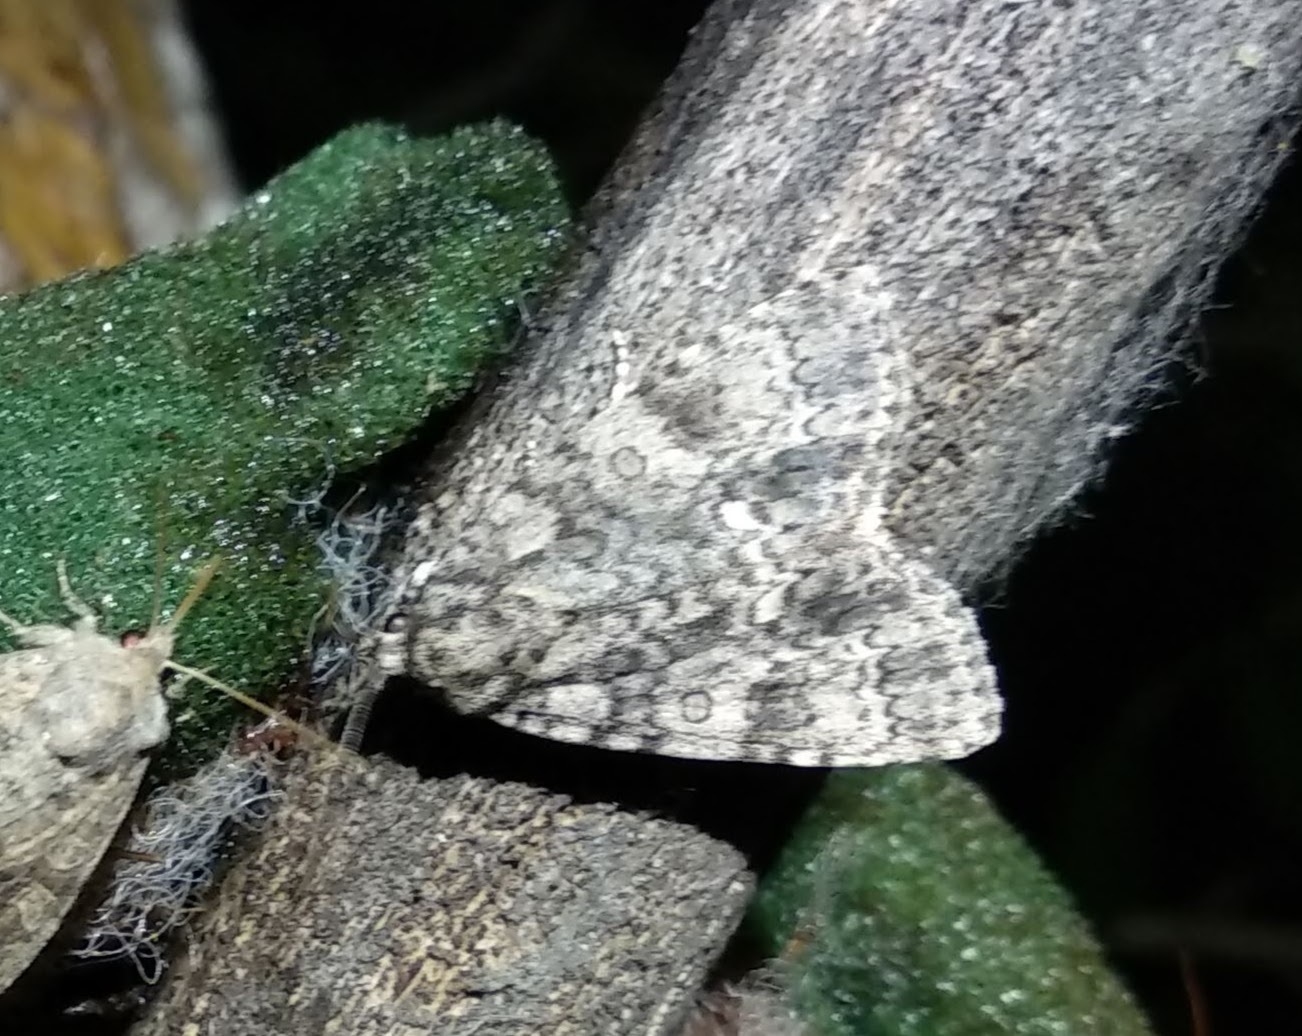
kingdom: Animalia
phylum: Arthropoda
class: Insecta
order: Lepidoptera
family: Noctuidae
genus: Acronicta
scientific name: Acronicta rumicis
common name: Knot grass
